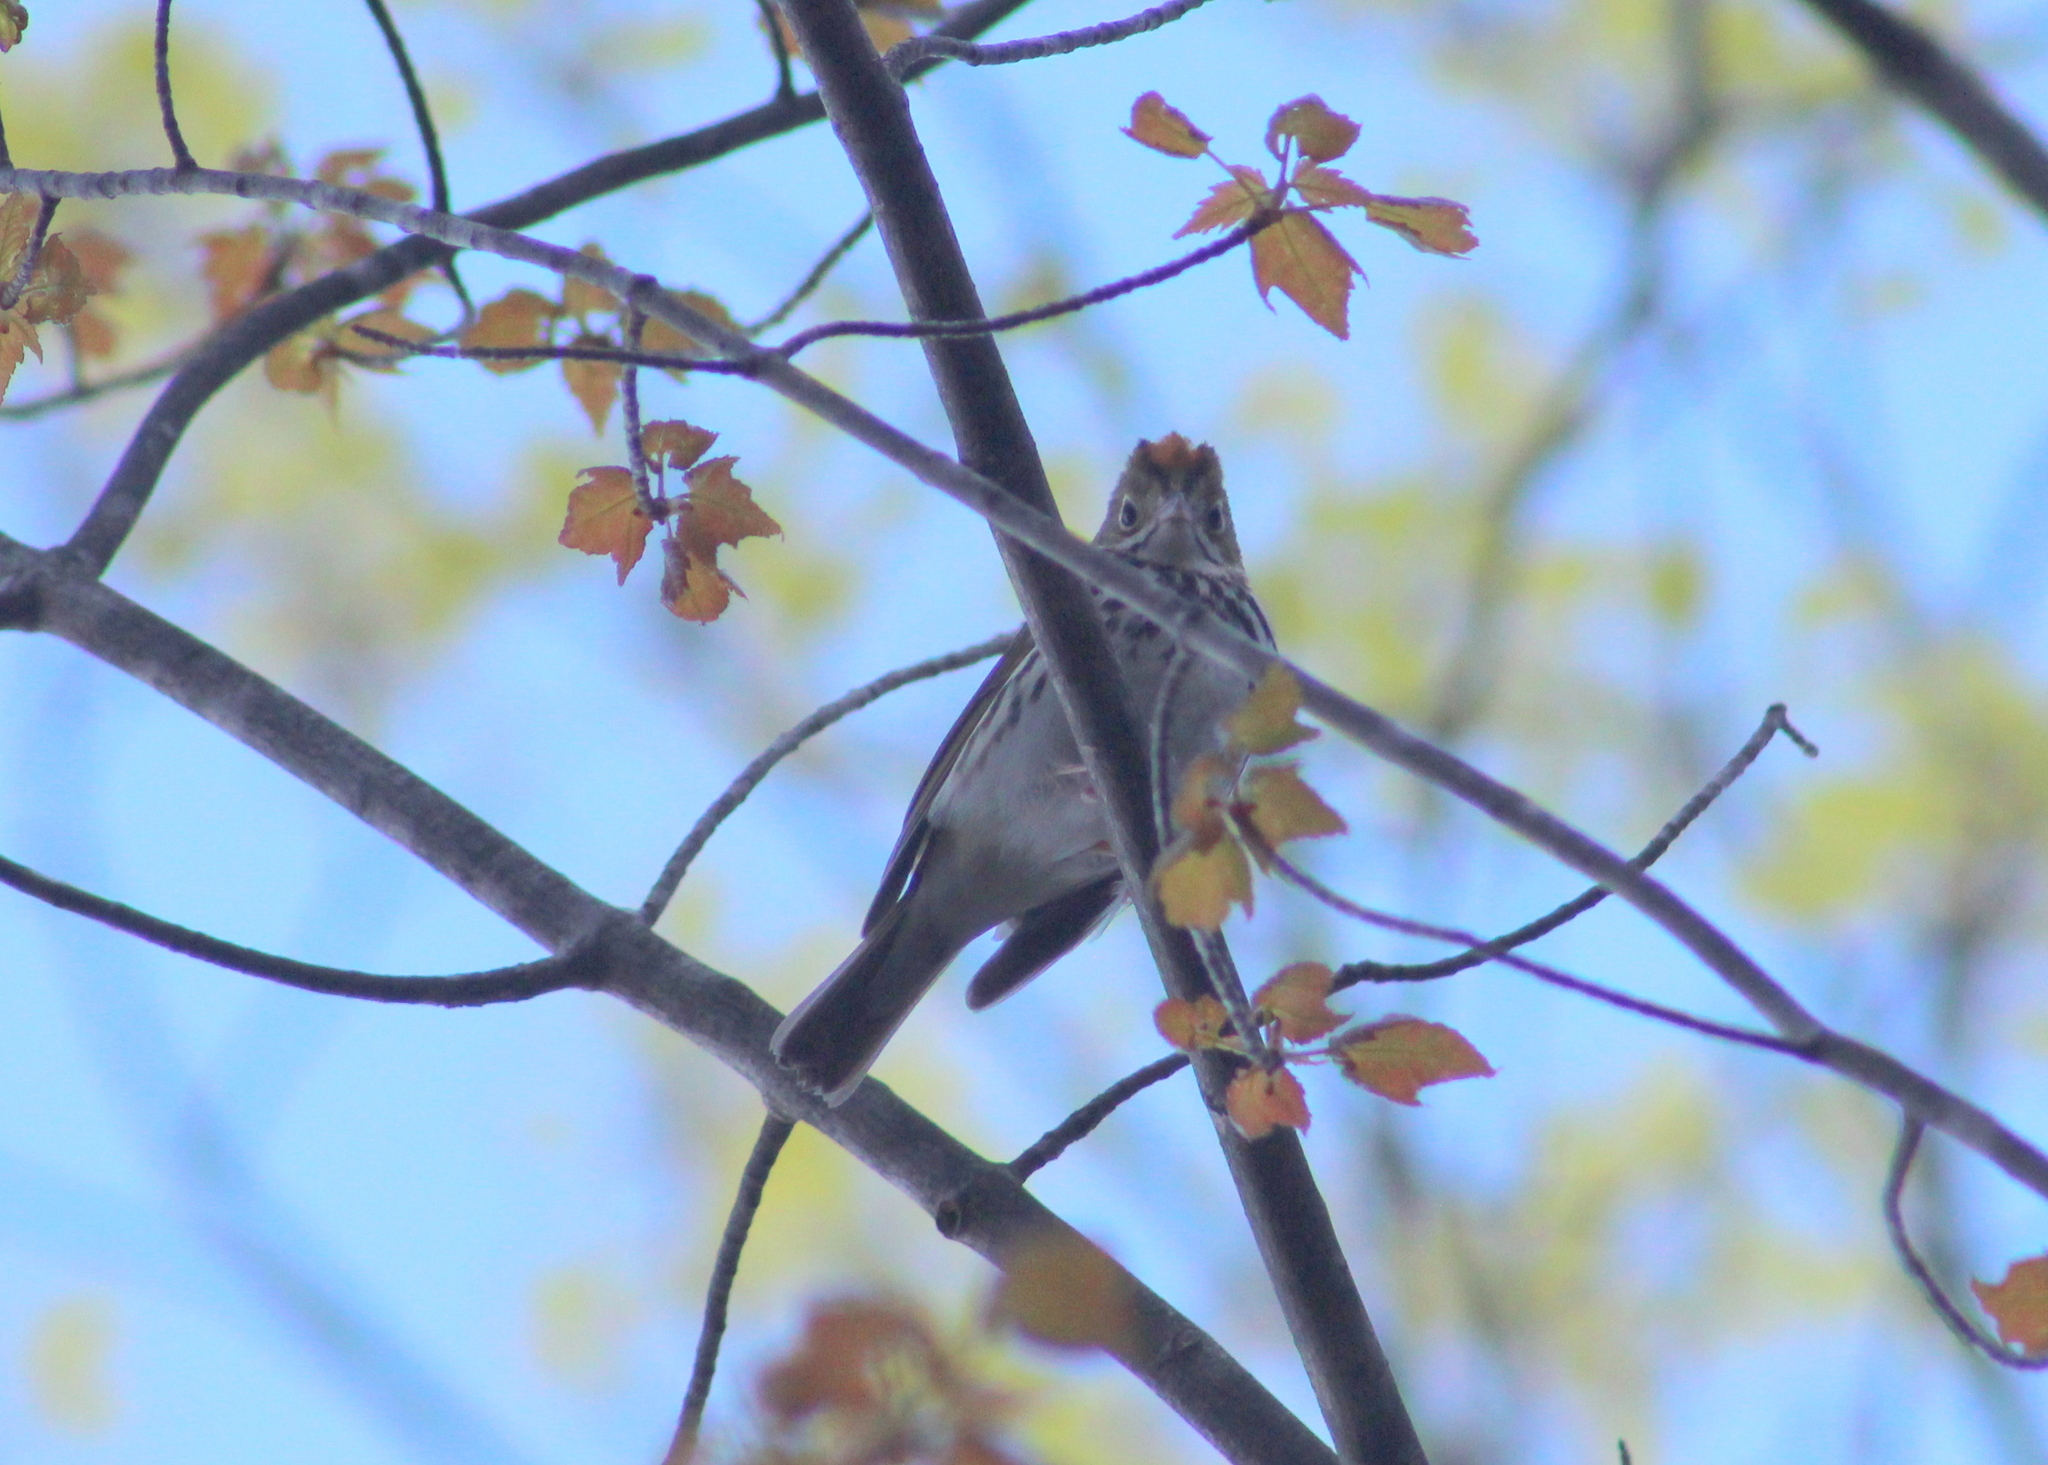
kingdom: Animalia
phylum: Chordata
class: Aves
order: Passeriformes
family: Parulidae
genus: Seiurus
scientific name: Seiurus aurocapilla
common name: Ovenbird
